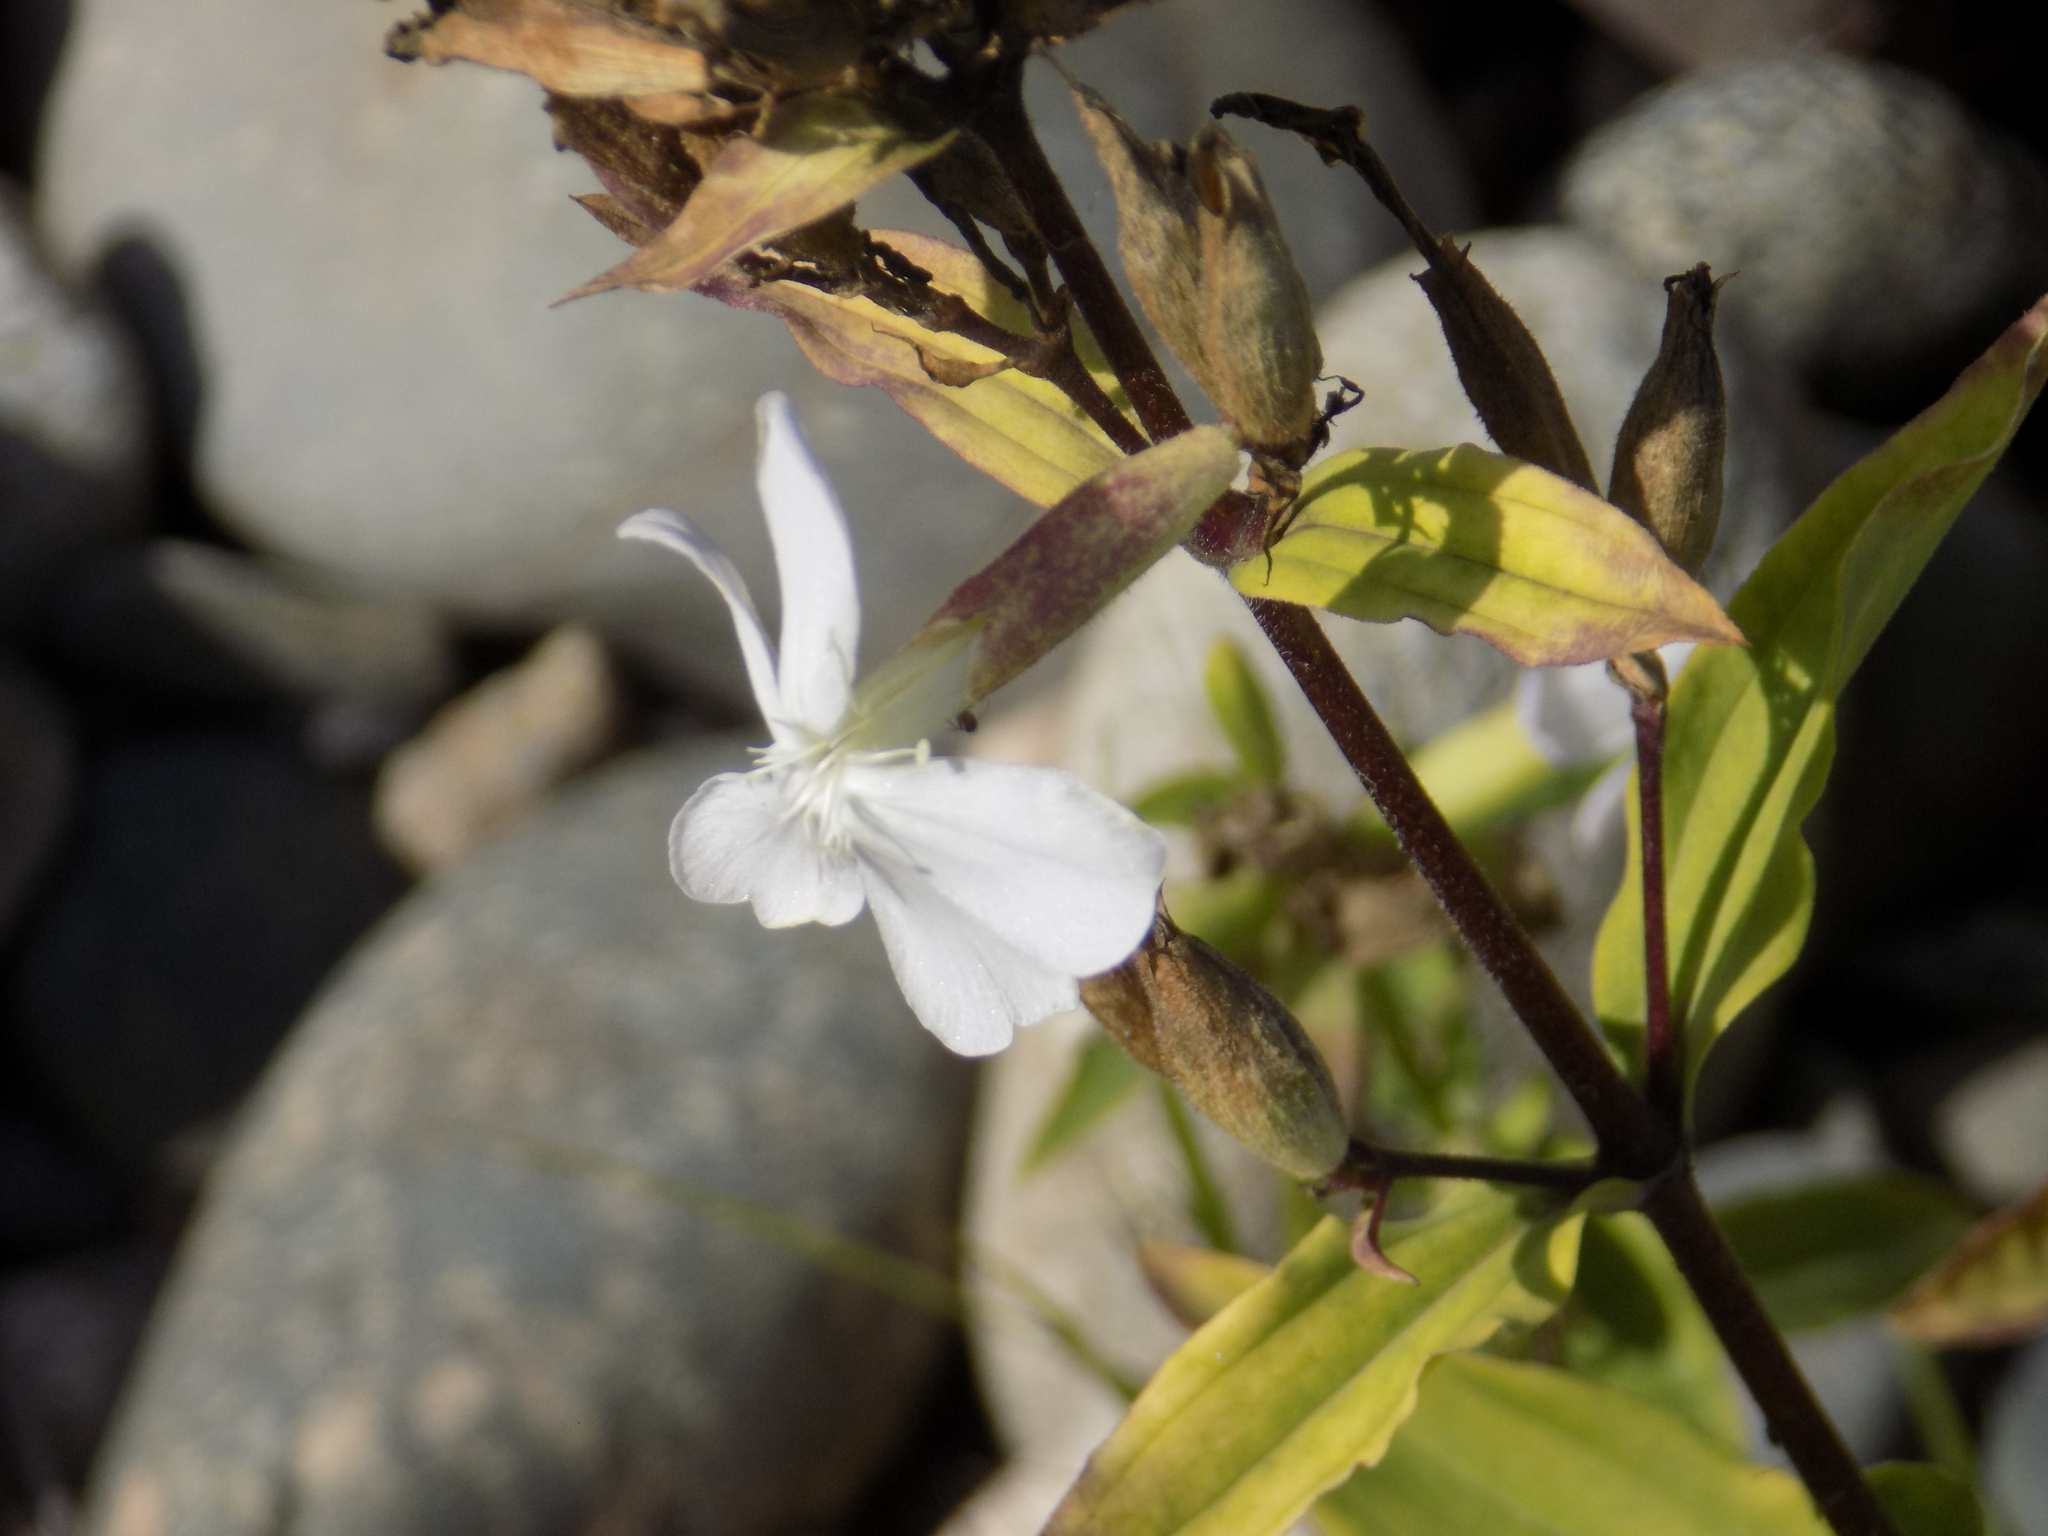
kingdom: Plantae
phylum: Tracheophyta
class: Magnoliopsida
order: Caryophyllales
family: Caryophyllaceae
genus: Saponaria
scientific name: Saponaria officinalis
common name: Soapwort
